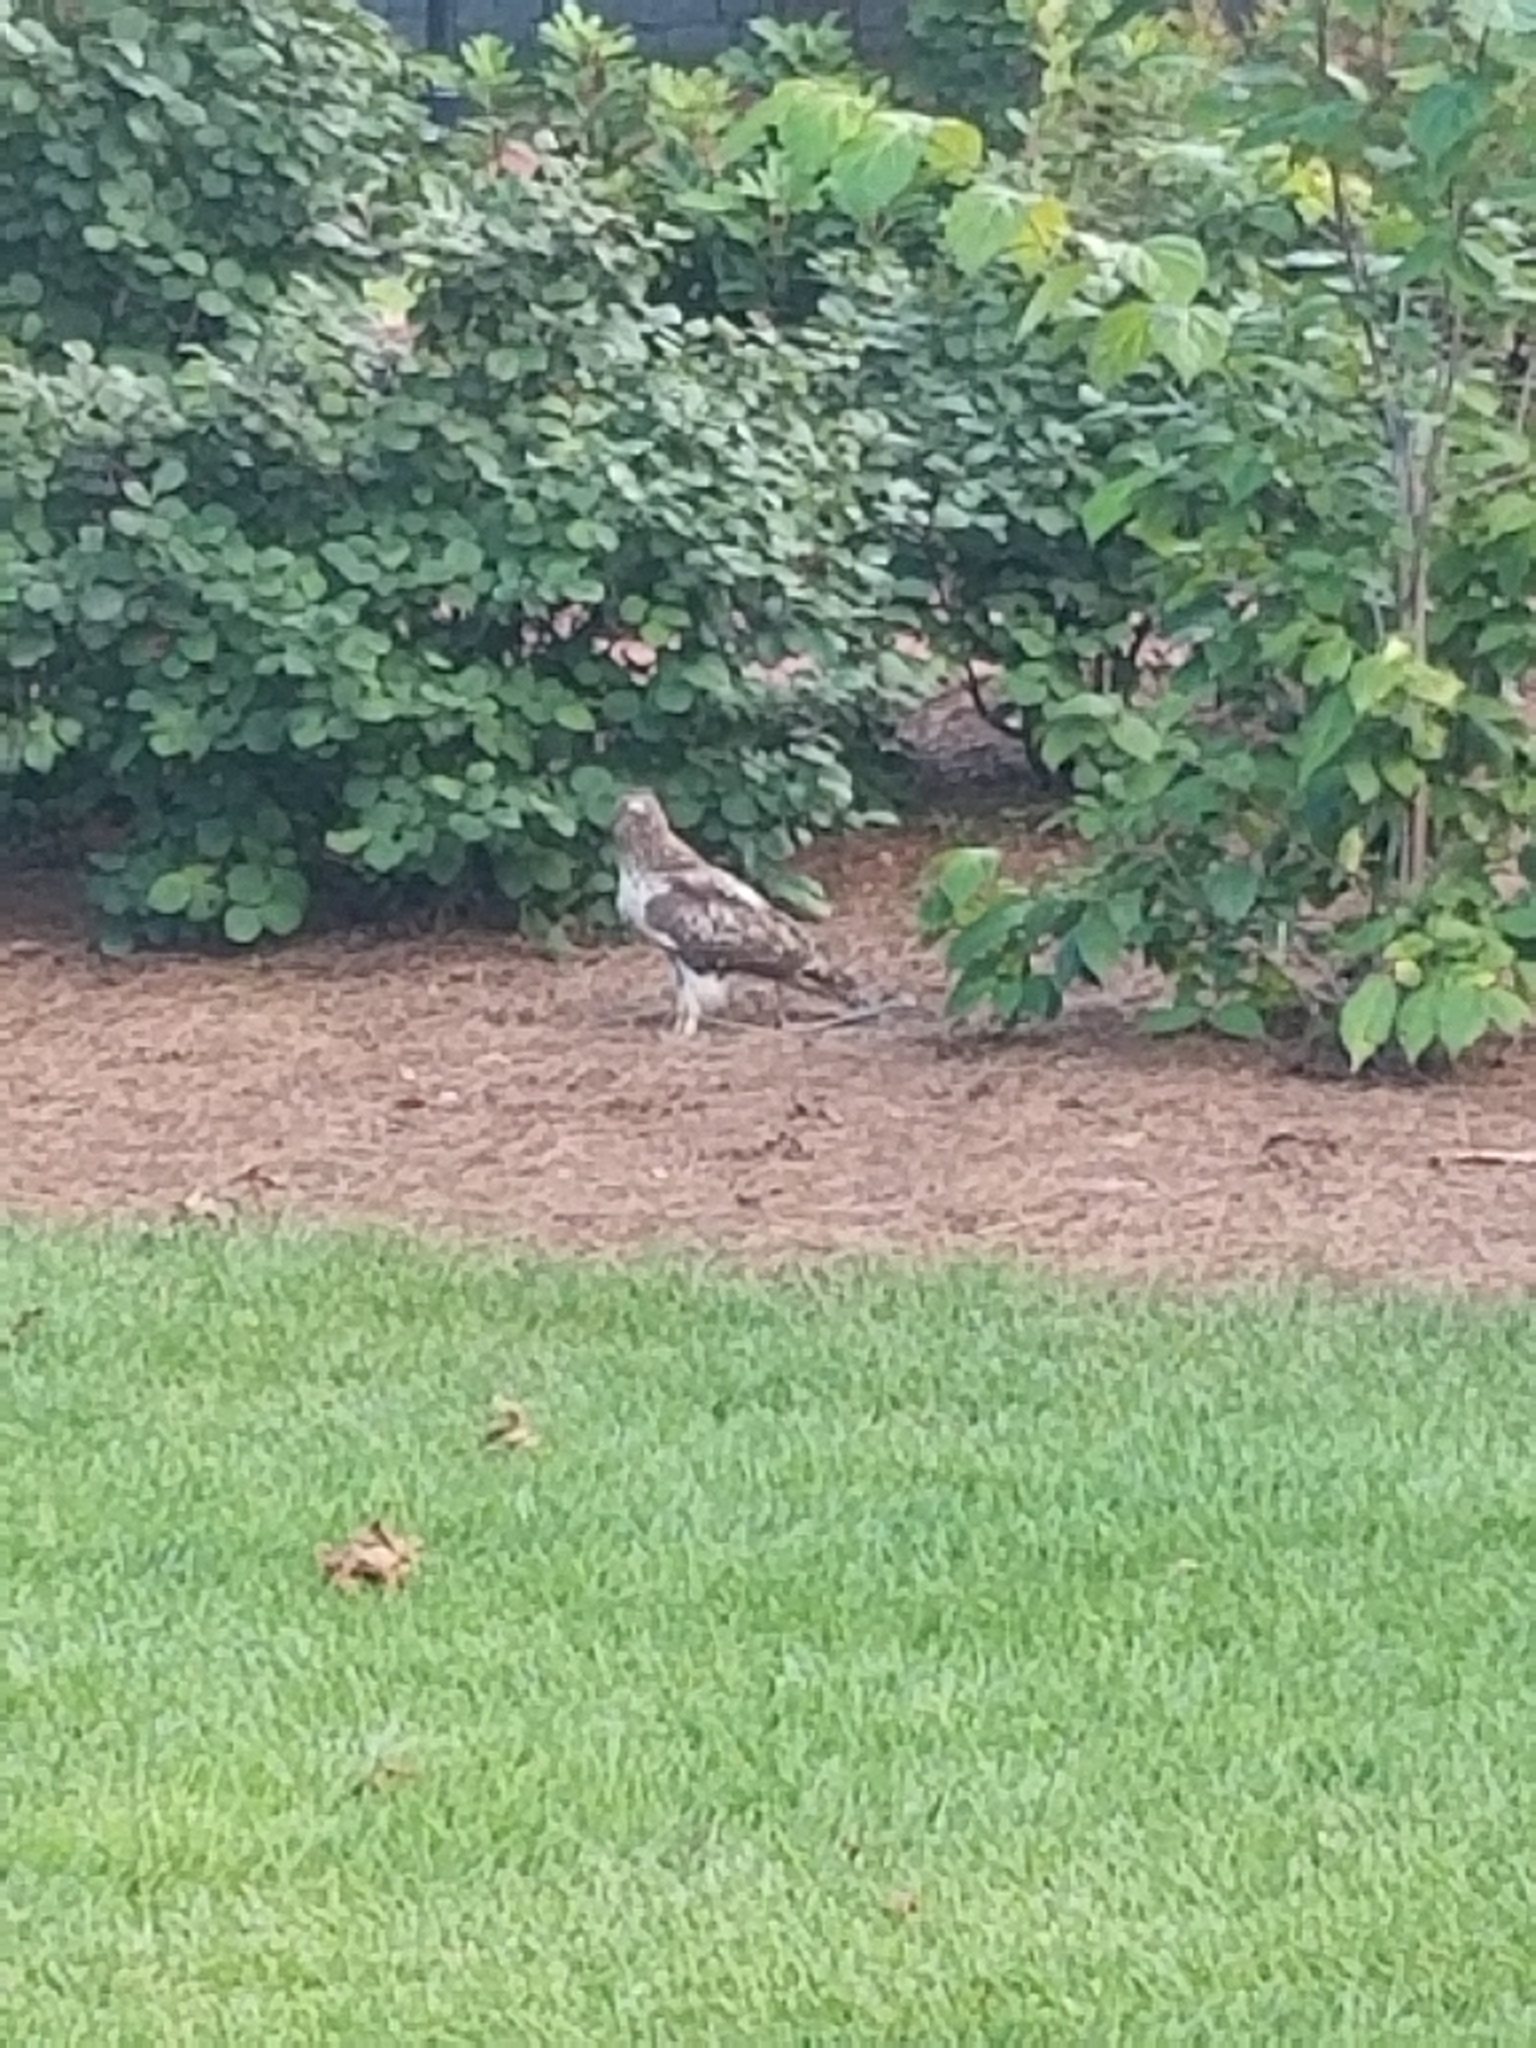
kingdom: Animalia
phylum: Chordata
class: Aves
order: Accipitriformes
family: Accipitridae
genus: Buteo
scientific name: Buteo jamaicensis
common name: Red-tailed hawk
